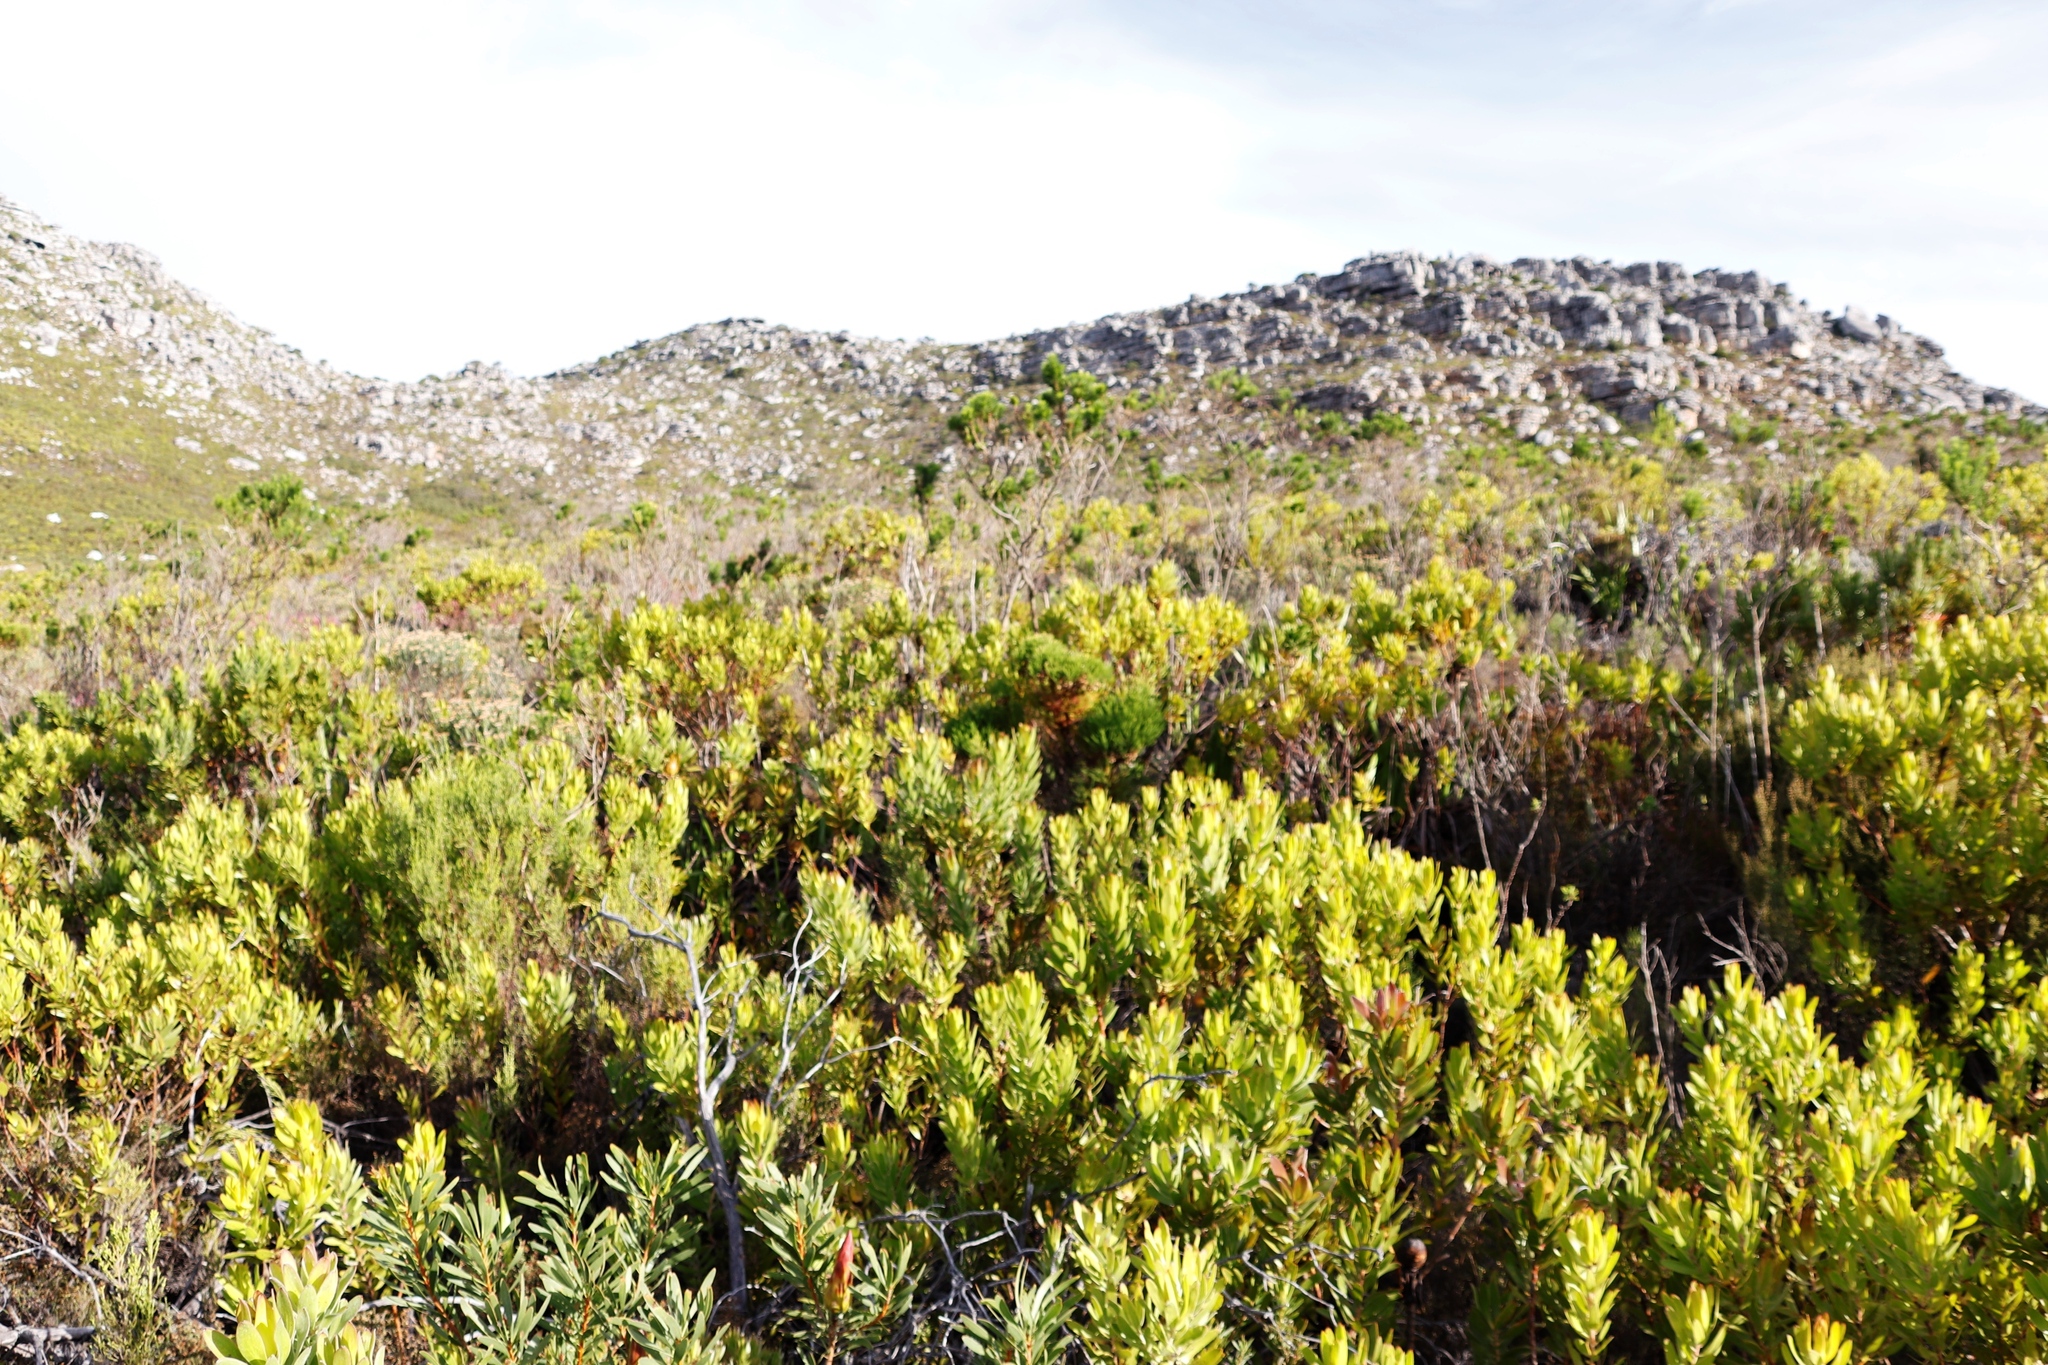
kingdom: Plantae
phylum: Tracheophyta
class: Magnoliopsida
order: Proteales
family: Proteaceae
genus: Leucadendron
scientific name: Leucadendron laureolum
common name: Golden sunshinebush
